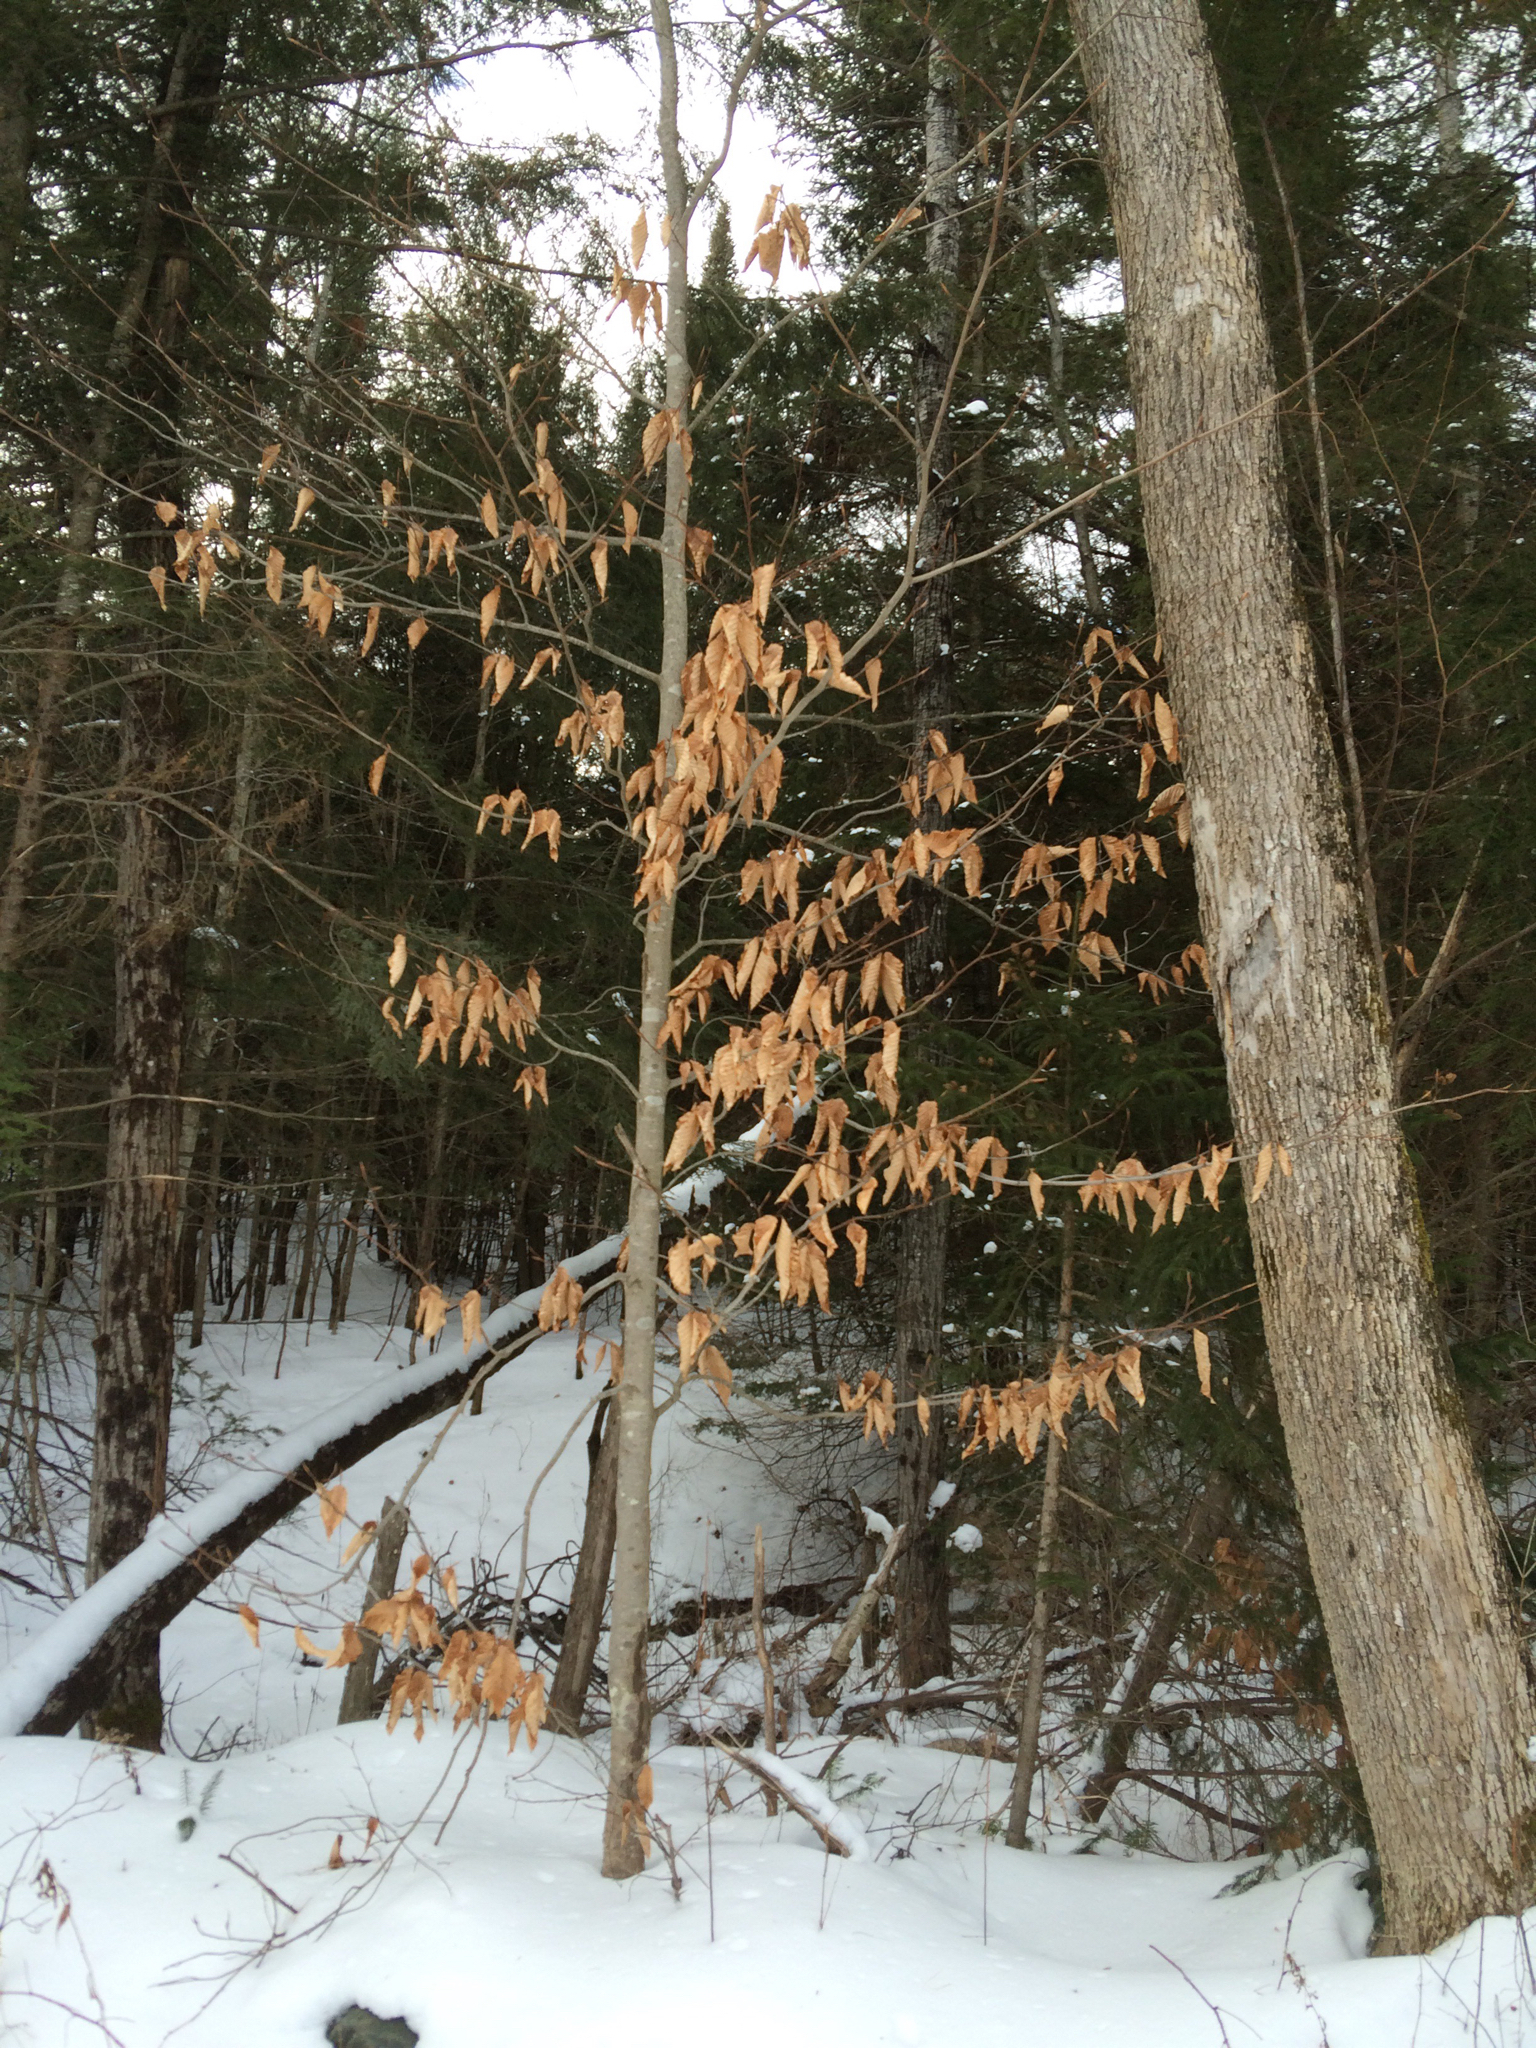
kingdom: Plantae
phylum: Tracheophyta
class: Magnoliopsida
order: Fagales
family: Fagaceae
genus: Fagus
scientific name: Fagus grandifolia
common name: American beech
